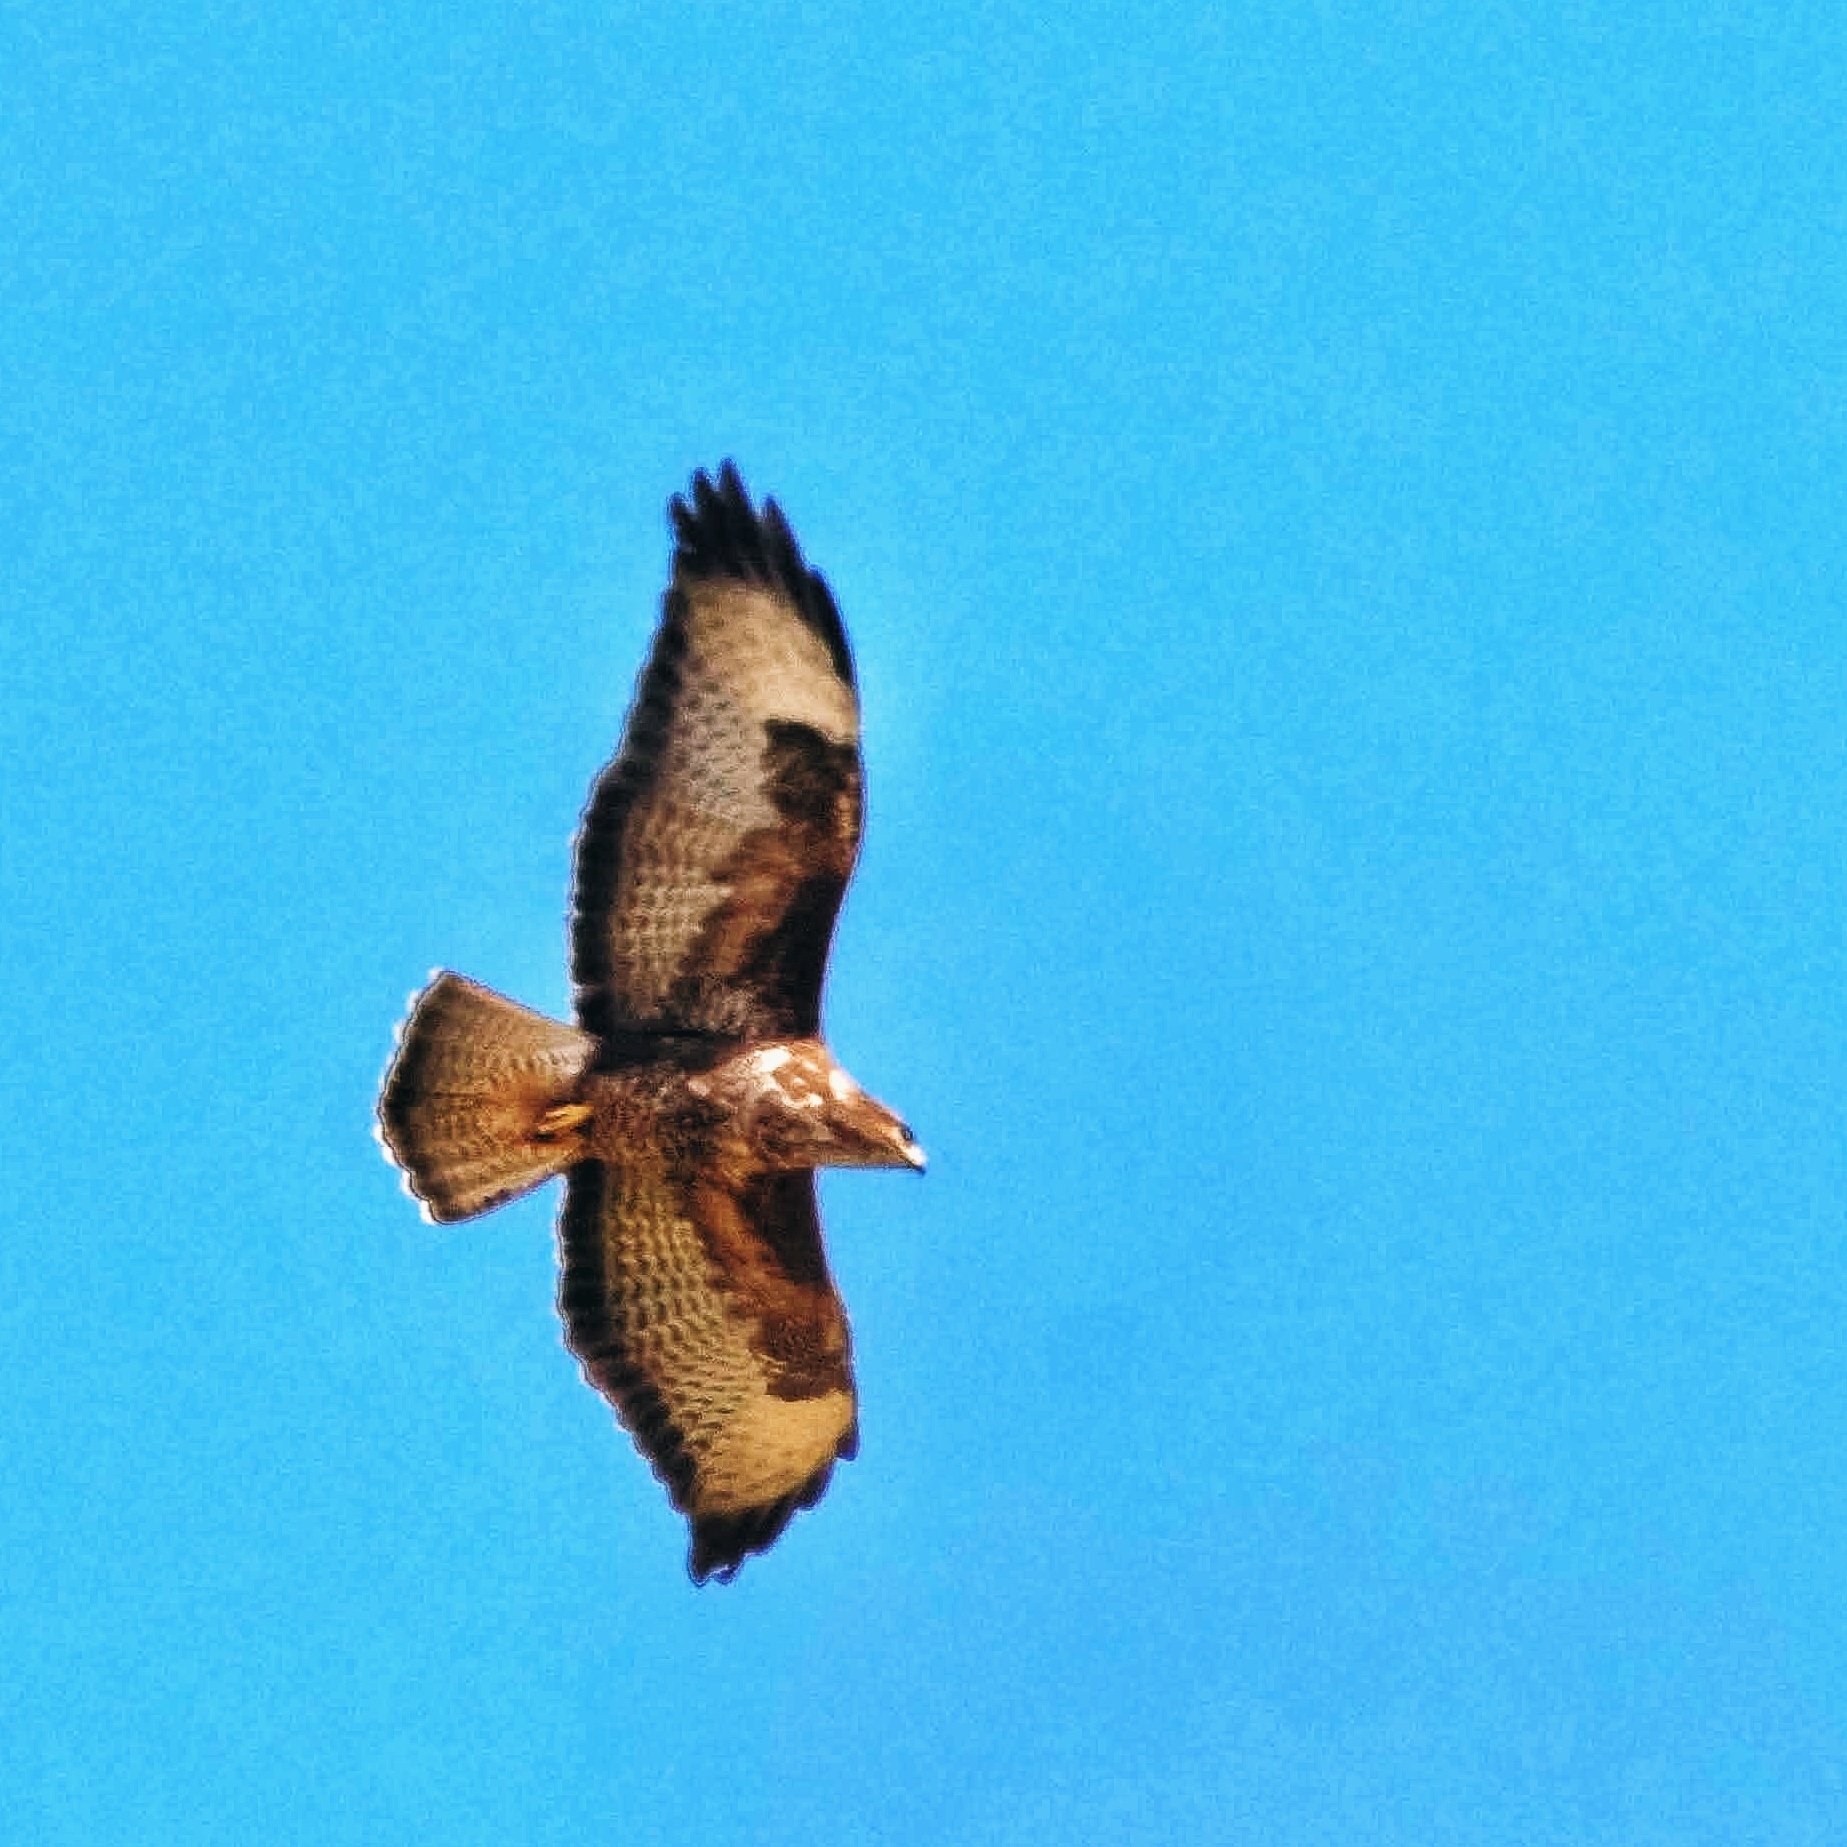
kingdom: Animalia
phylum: Chordata
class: Aves
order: Accipitriformes
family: Accipitridae
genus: Buteo
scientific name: Buteo buteo
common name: Common buzzard
